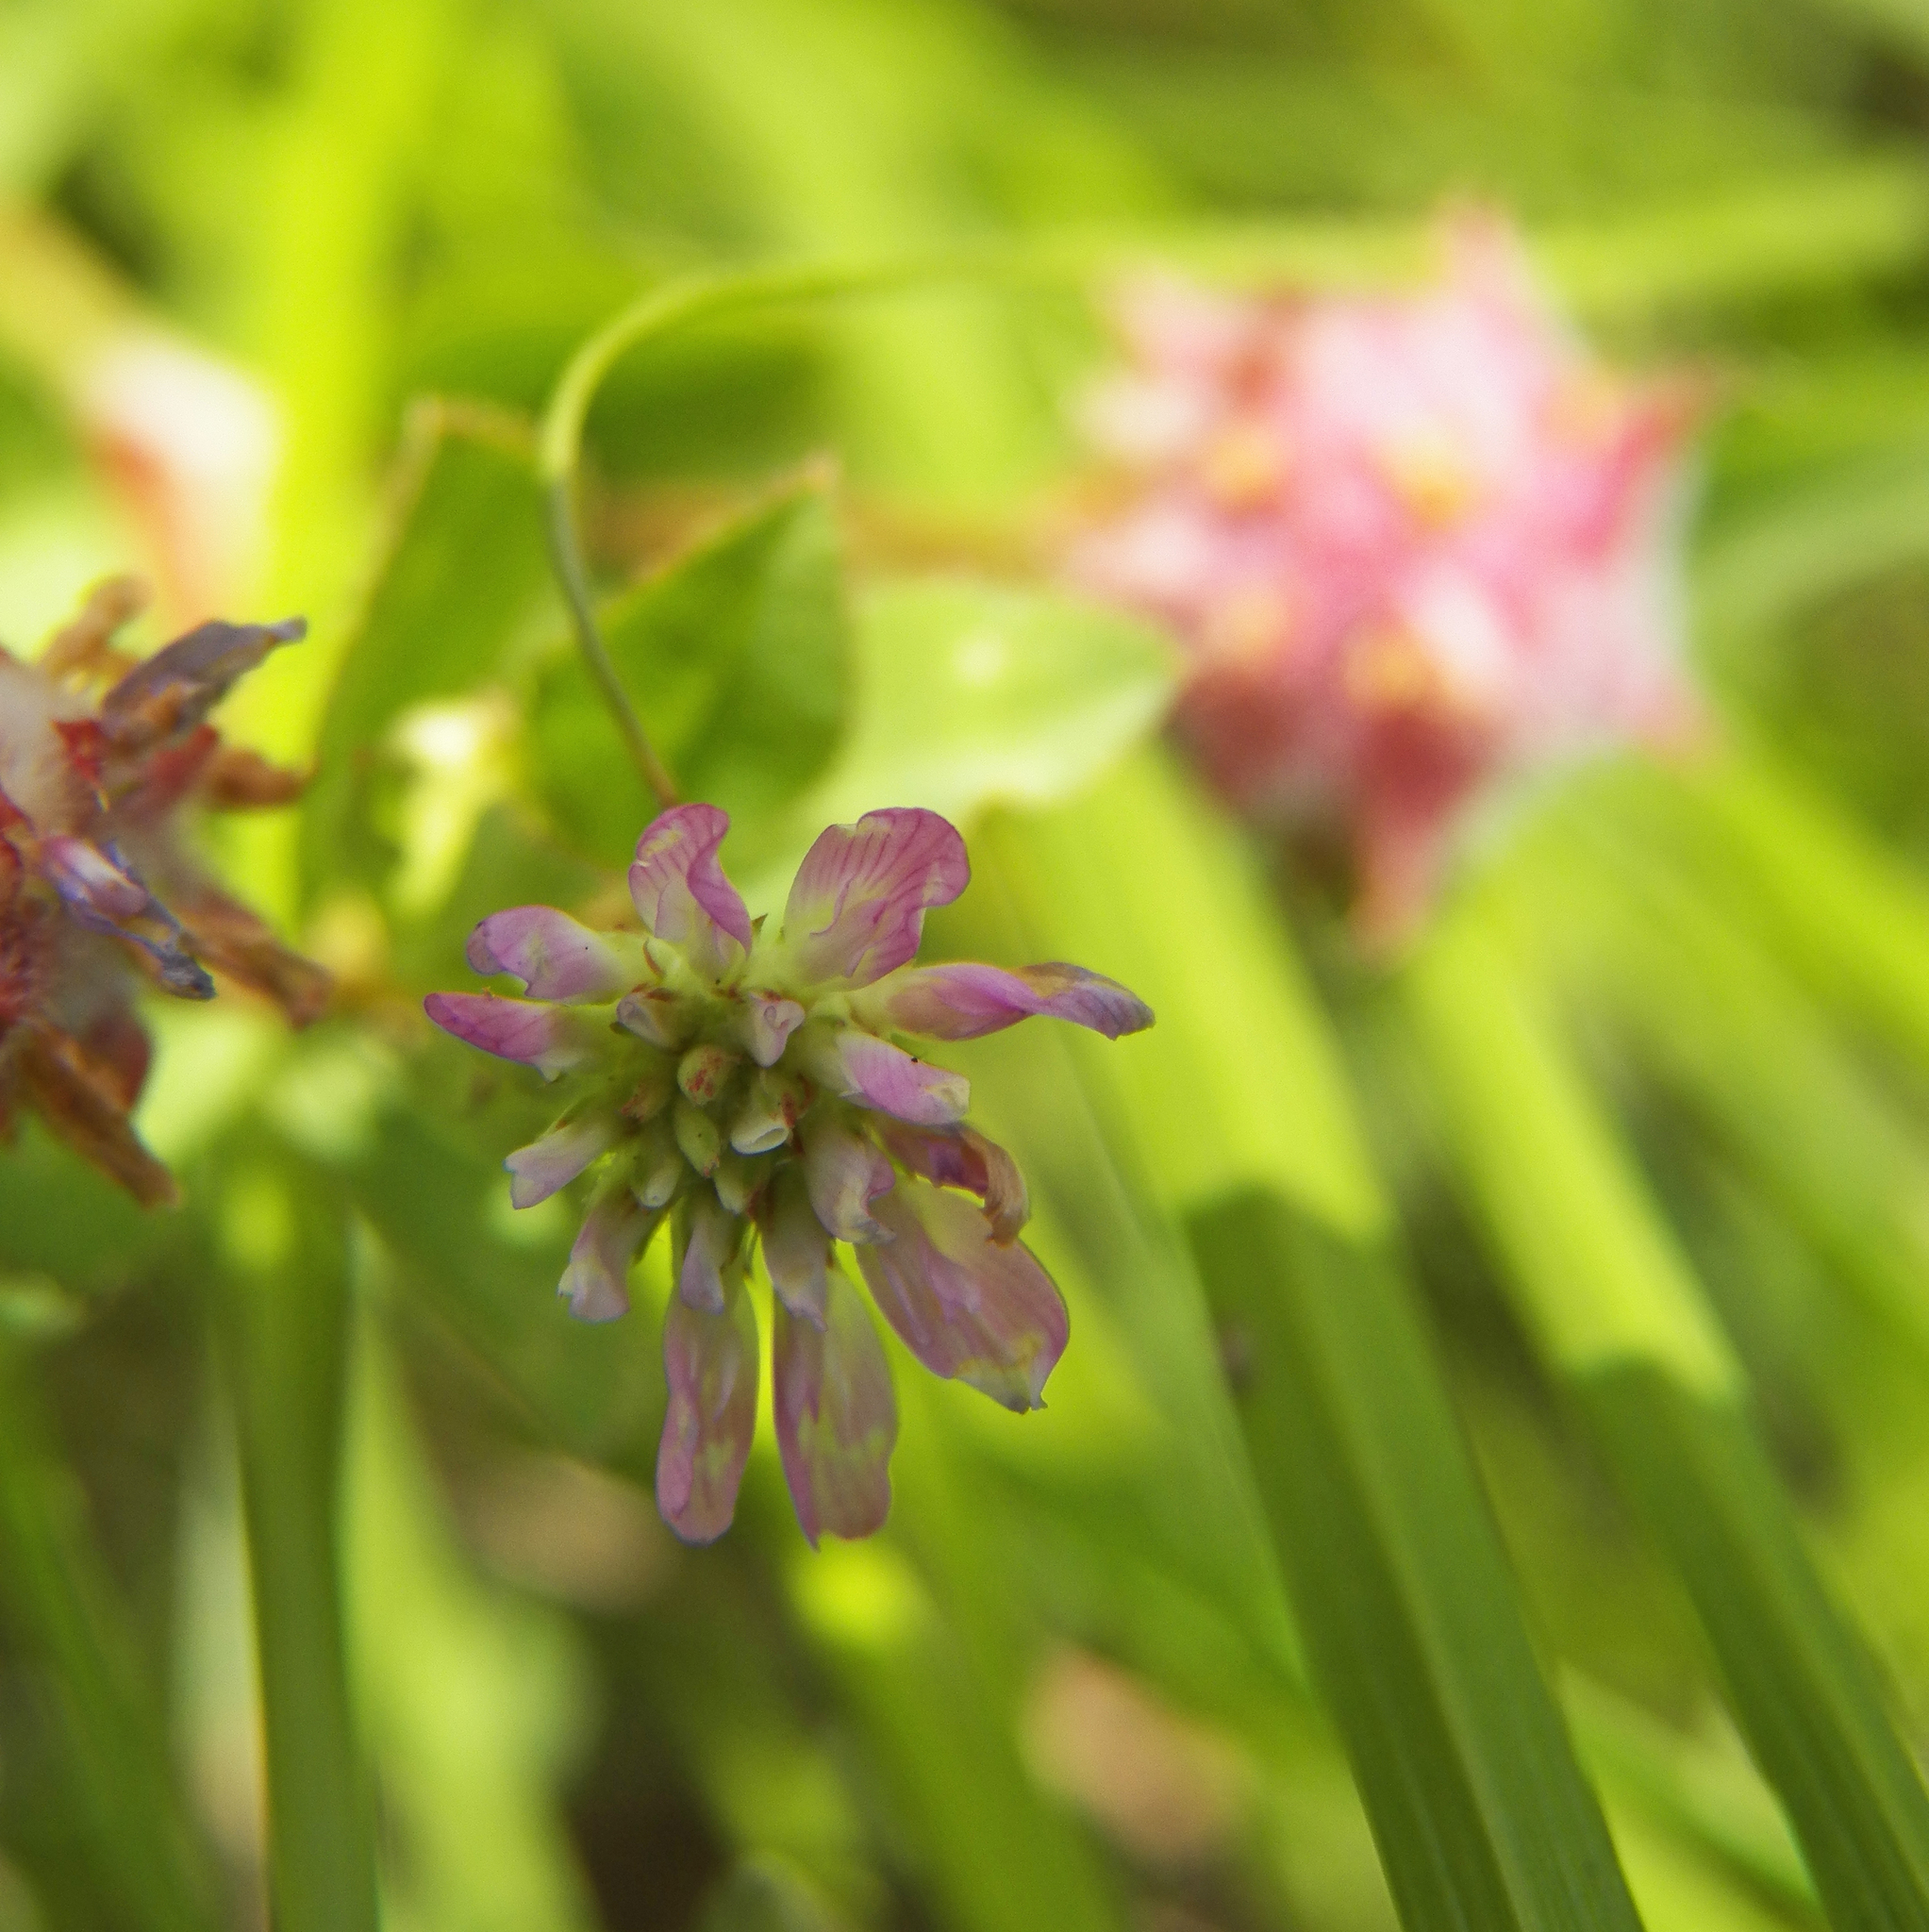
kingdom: Plantae
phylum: Tracheophyta
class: Magnoliopsida
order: Fabales
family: Fabaceae
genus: Trifolium
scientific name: Trifolium resupinatum
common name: Reversed clover
